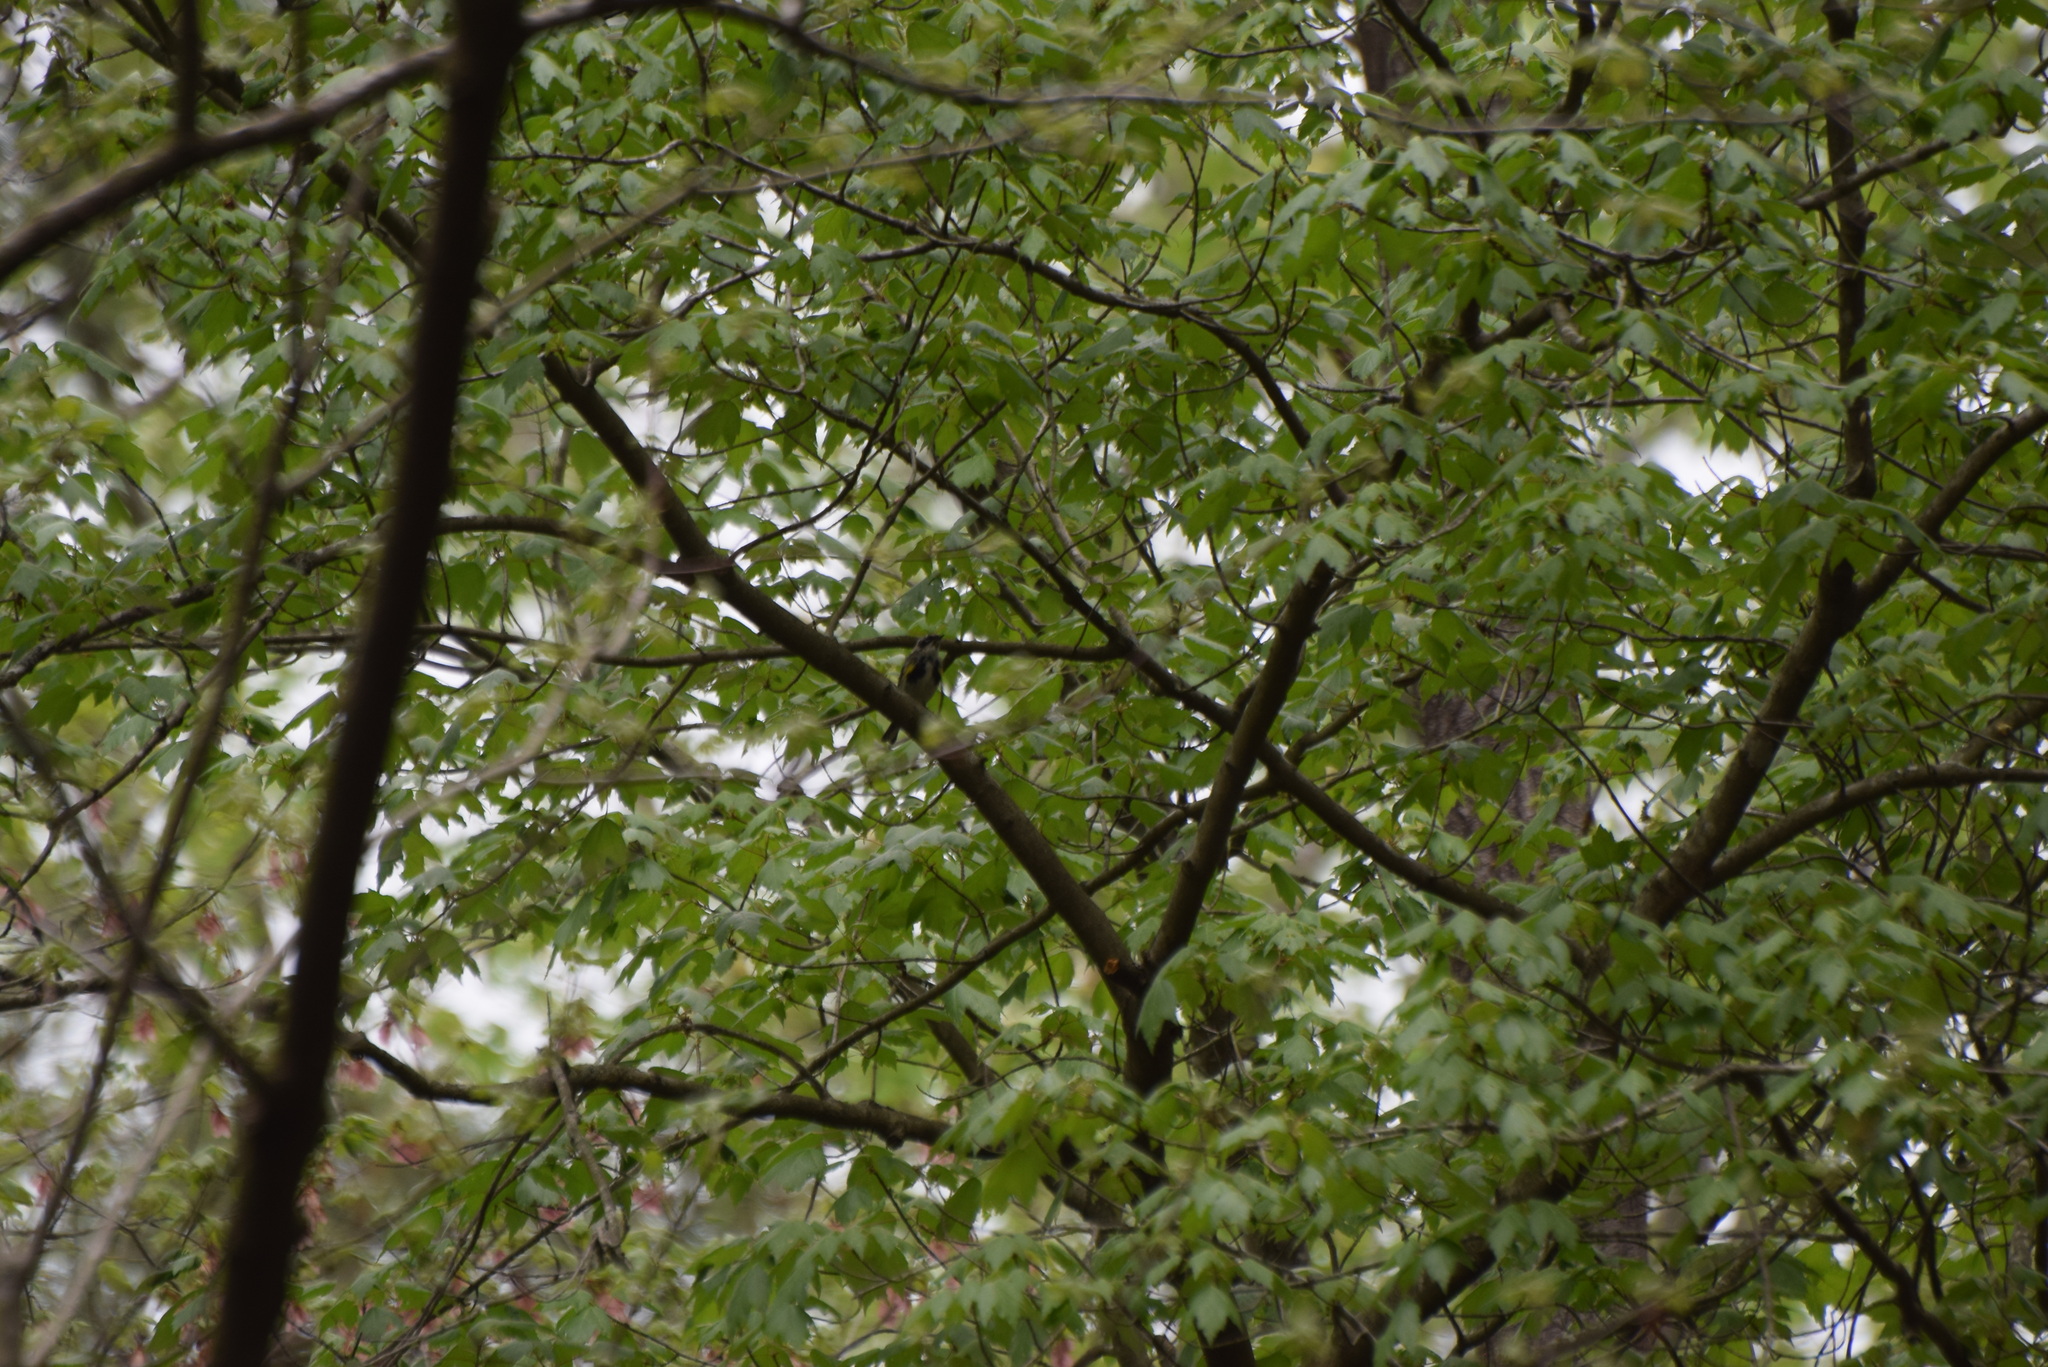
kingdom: Animalia
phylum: Chordata
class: Aves
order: Passeriformes
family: Parulidae
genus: Setophaga
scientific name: Setophaga coronata
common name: Myrtle warbler
